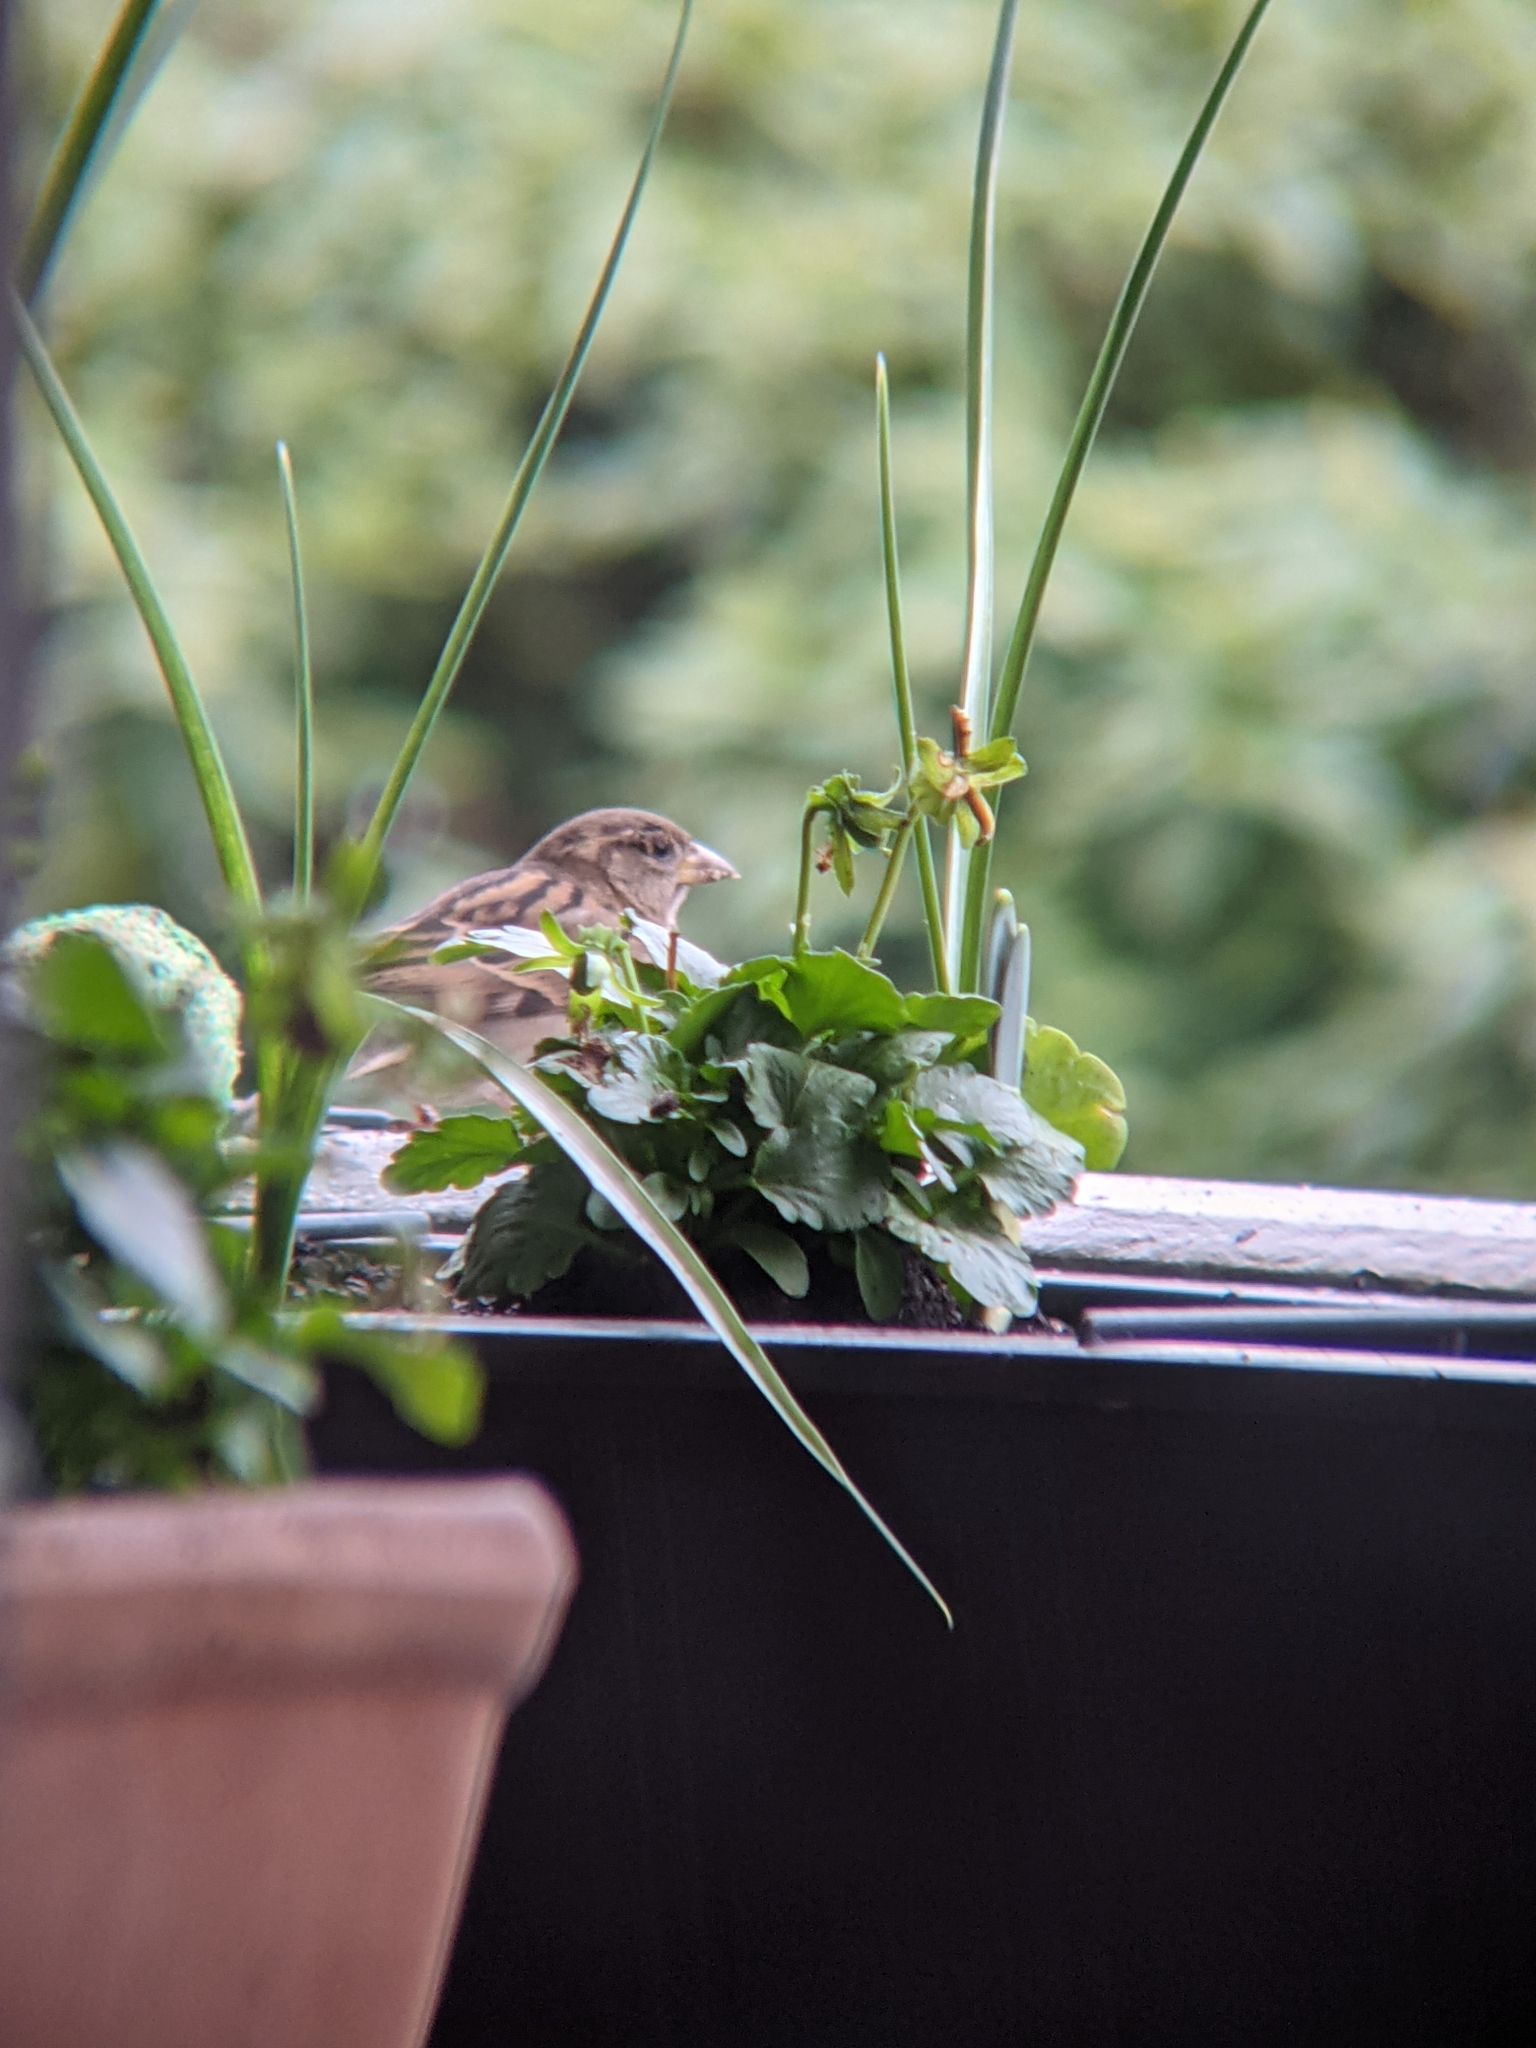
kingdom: Animalia
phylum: Chordata
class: Aves
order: Passeriformes
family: Passeridae
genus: Passer
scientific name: Passer domesticus
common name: House sparrow
